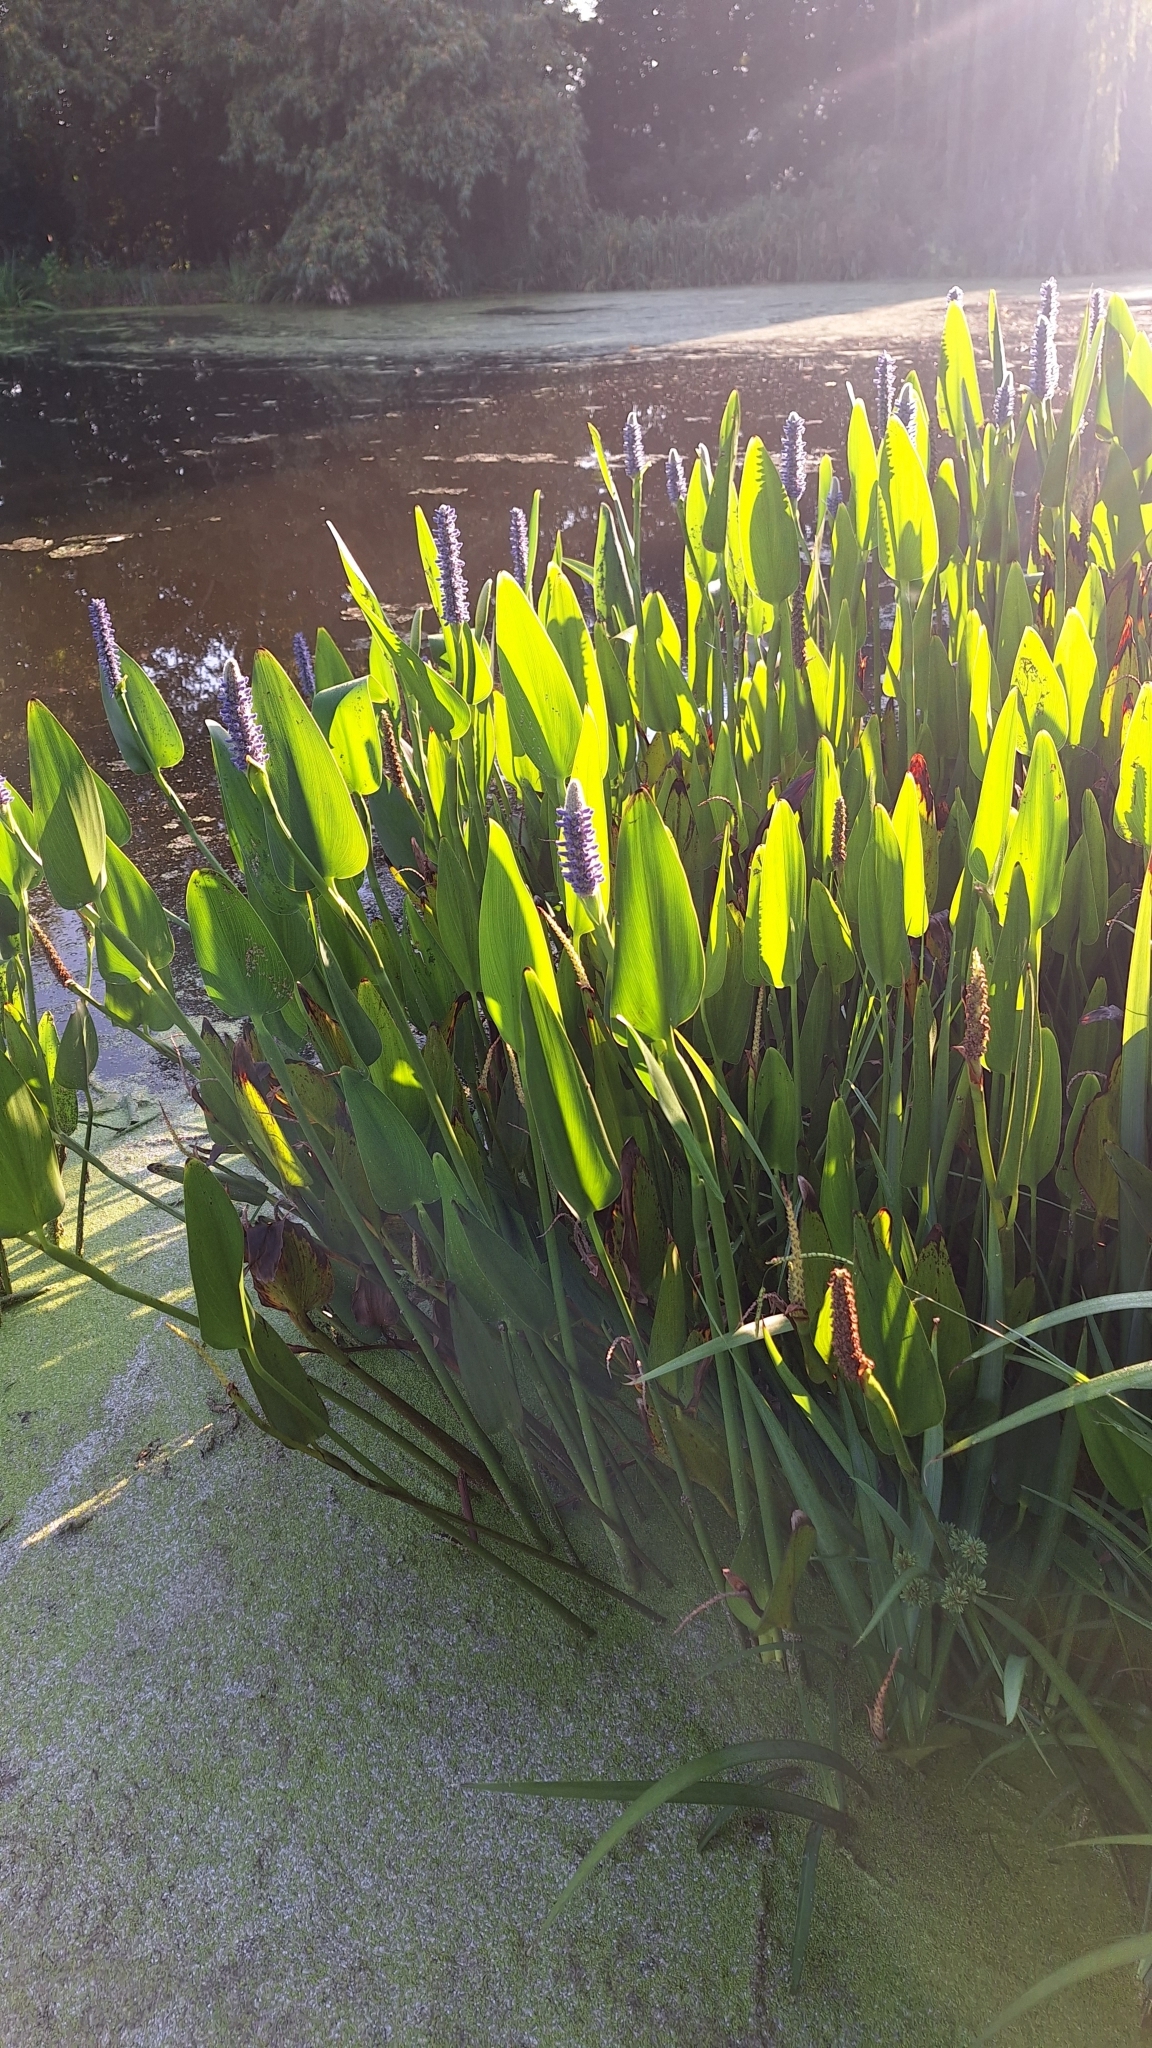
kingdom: Plantae
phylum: Tracheophyta
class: Liliopsida
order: Commelinales
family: Pontederiaceae
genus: Pontederia
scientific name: Pontederia cordata
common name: Pickerelweed
